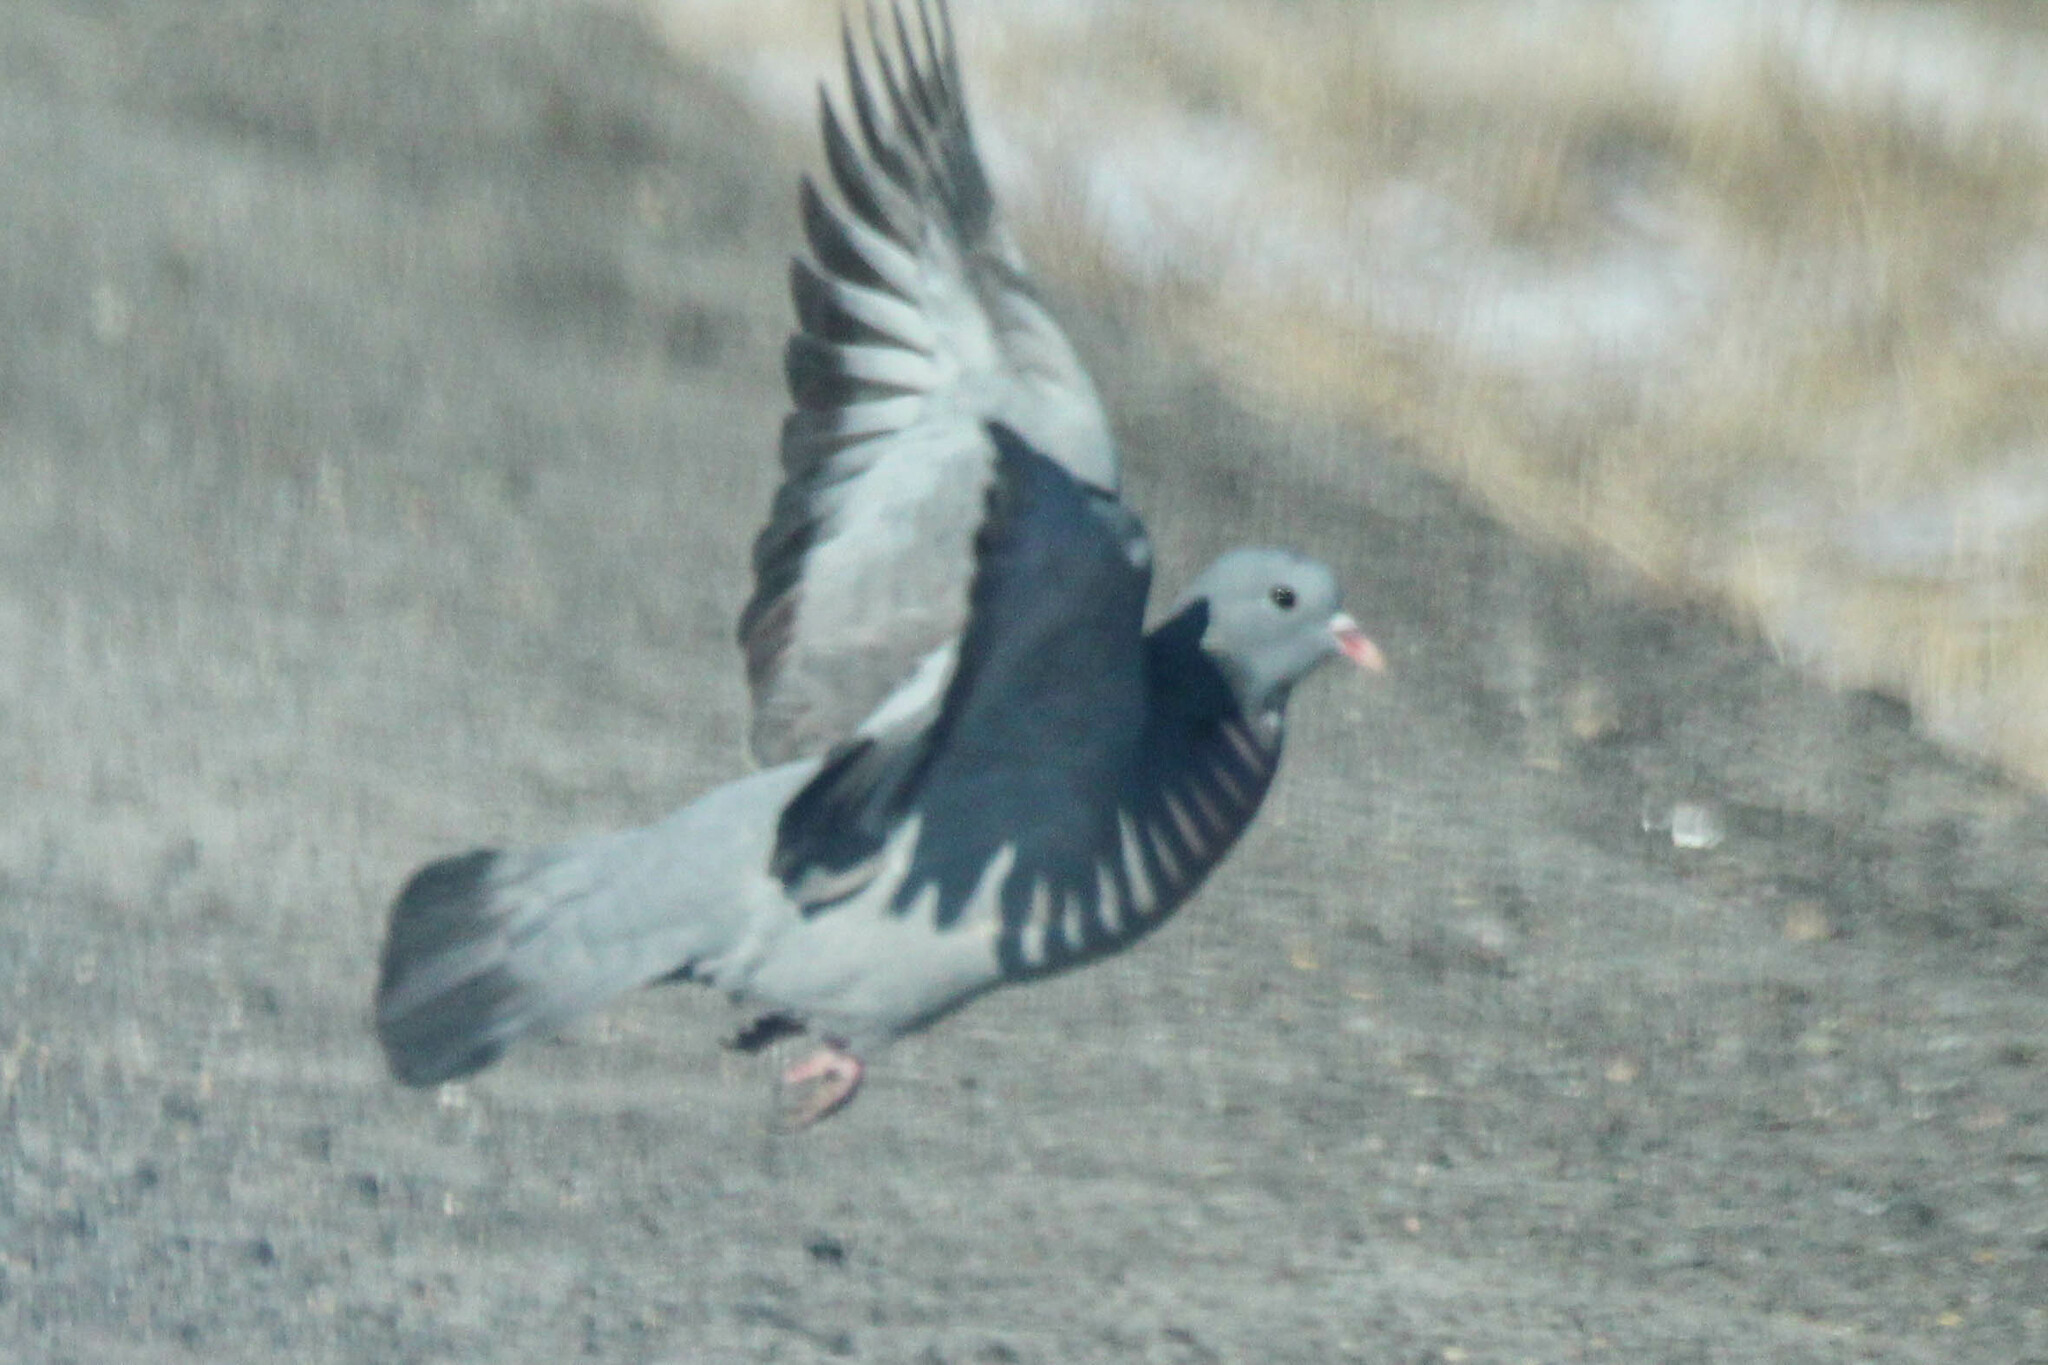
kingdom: Animalia
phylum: Chordata
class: Aves
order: Columbiformes
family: Columbidae
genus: Columba
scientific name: Columba oenas
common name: Stock dove
